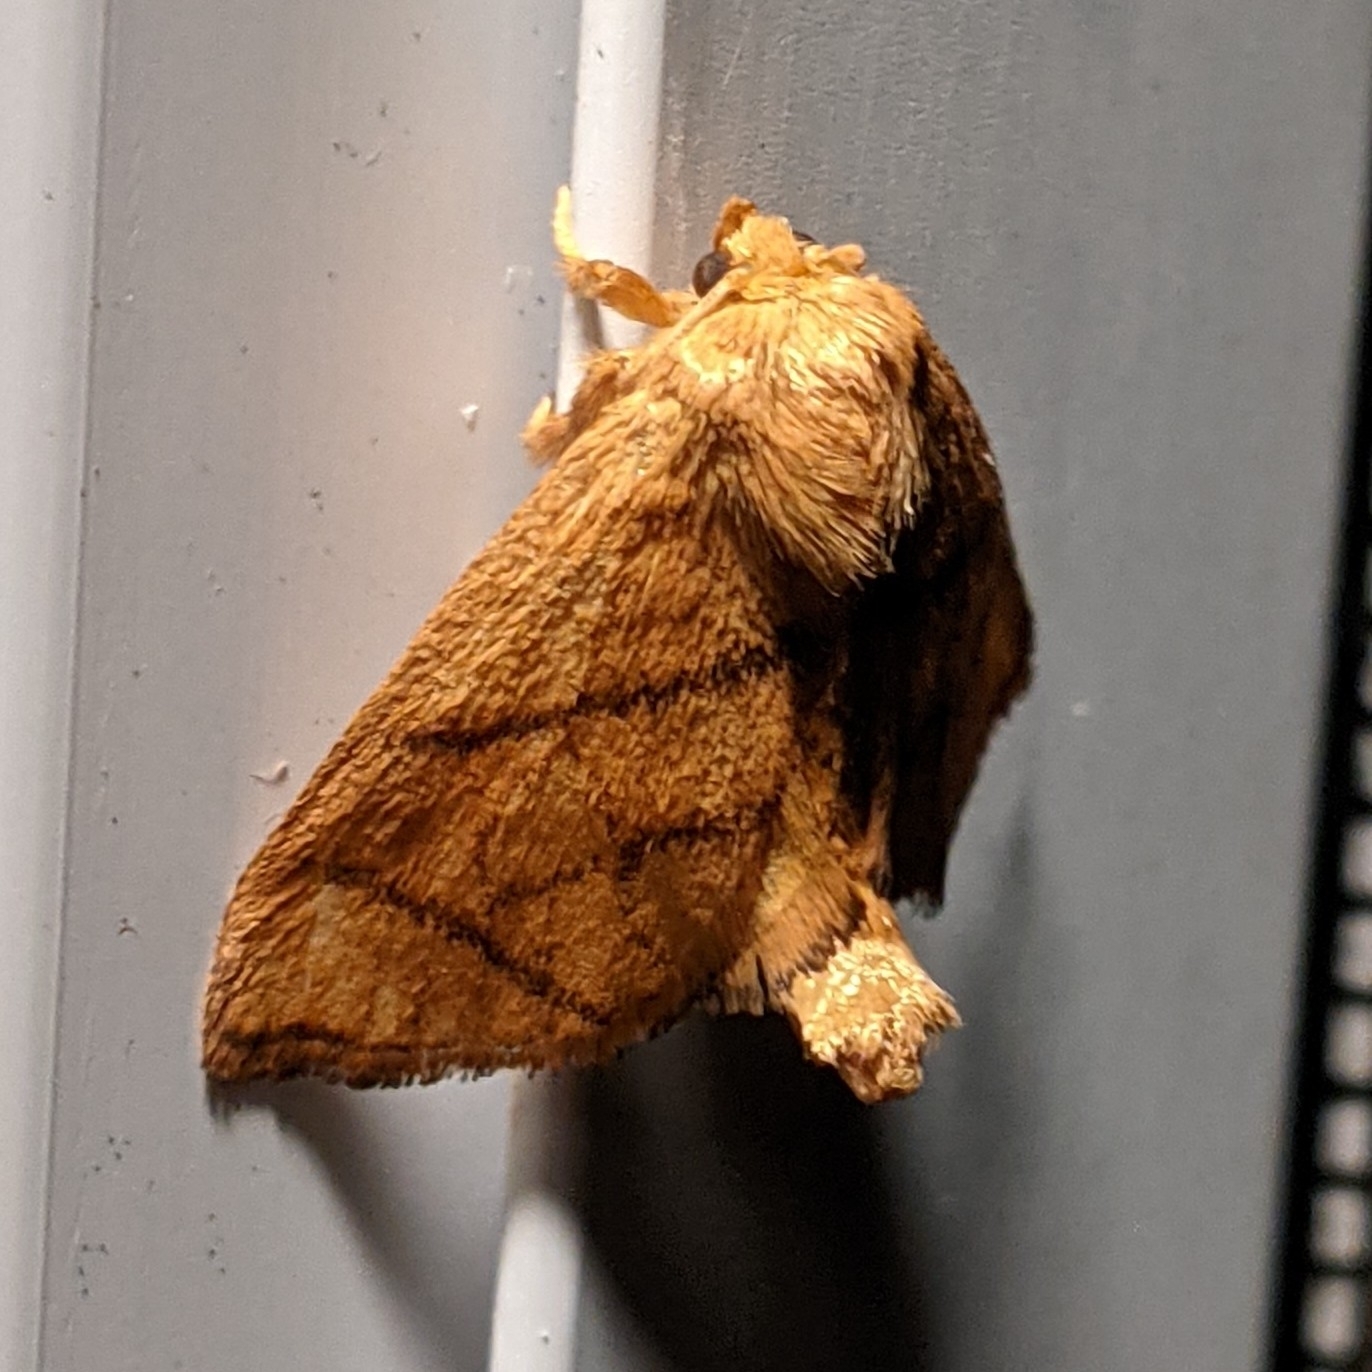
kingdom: Animalia
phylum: Arthropoda
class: Insecta
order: Lepidoptera
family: Limacodidae
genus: Apoda
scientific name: Apoda y-inversa
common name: Yellow-collared slug moth
